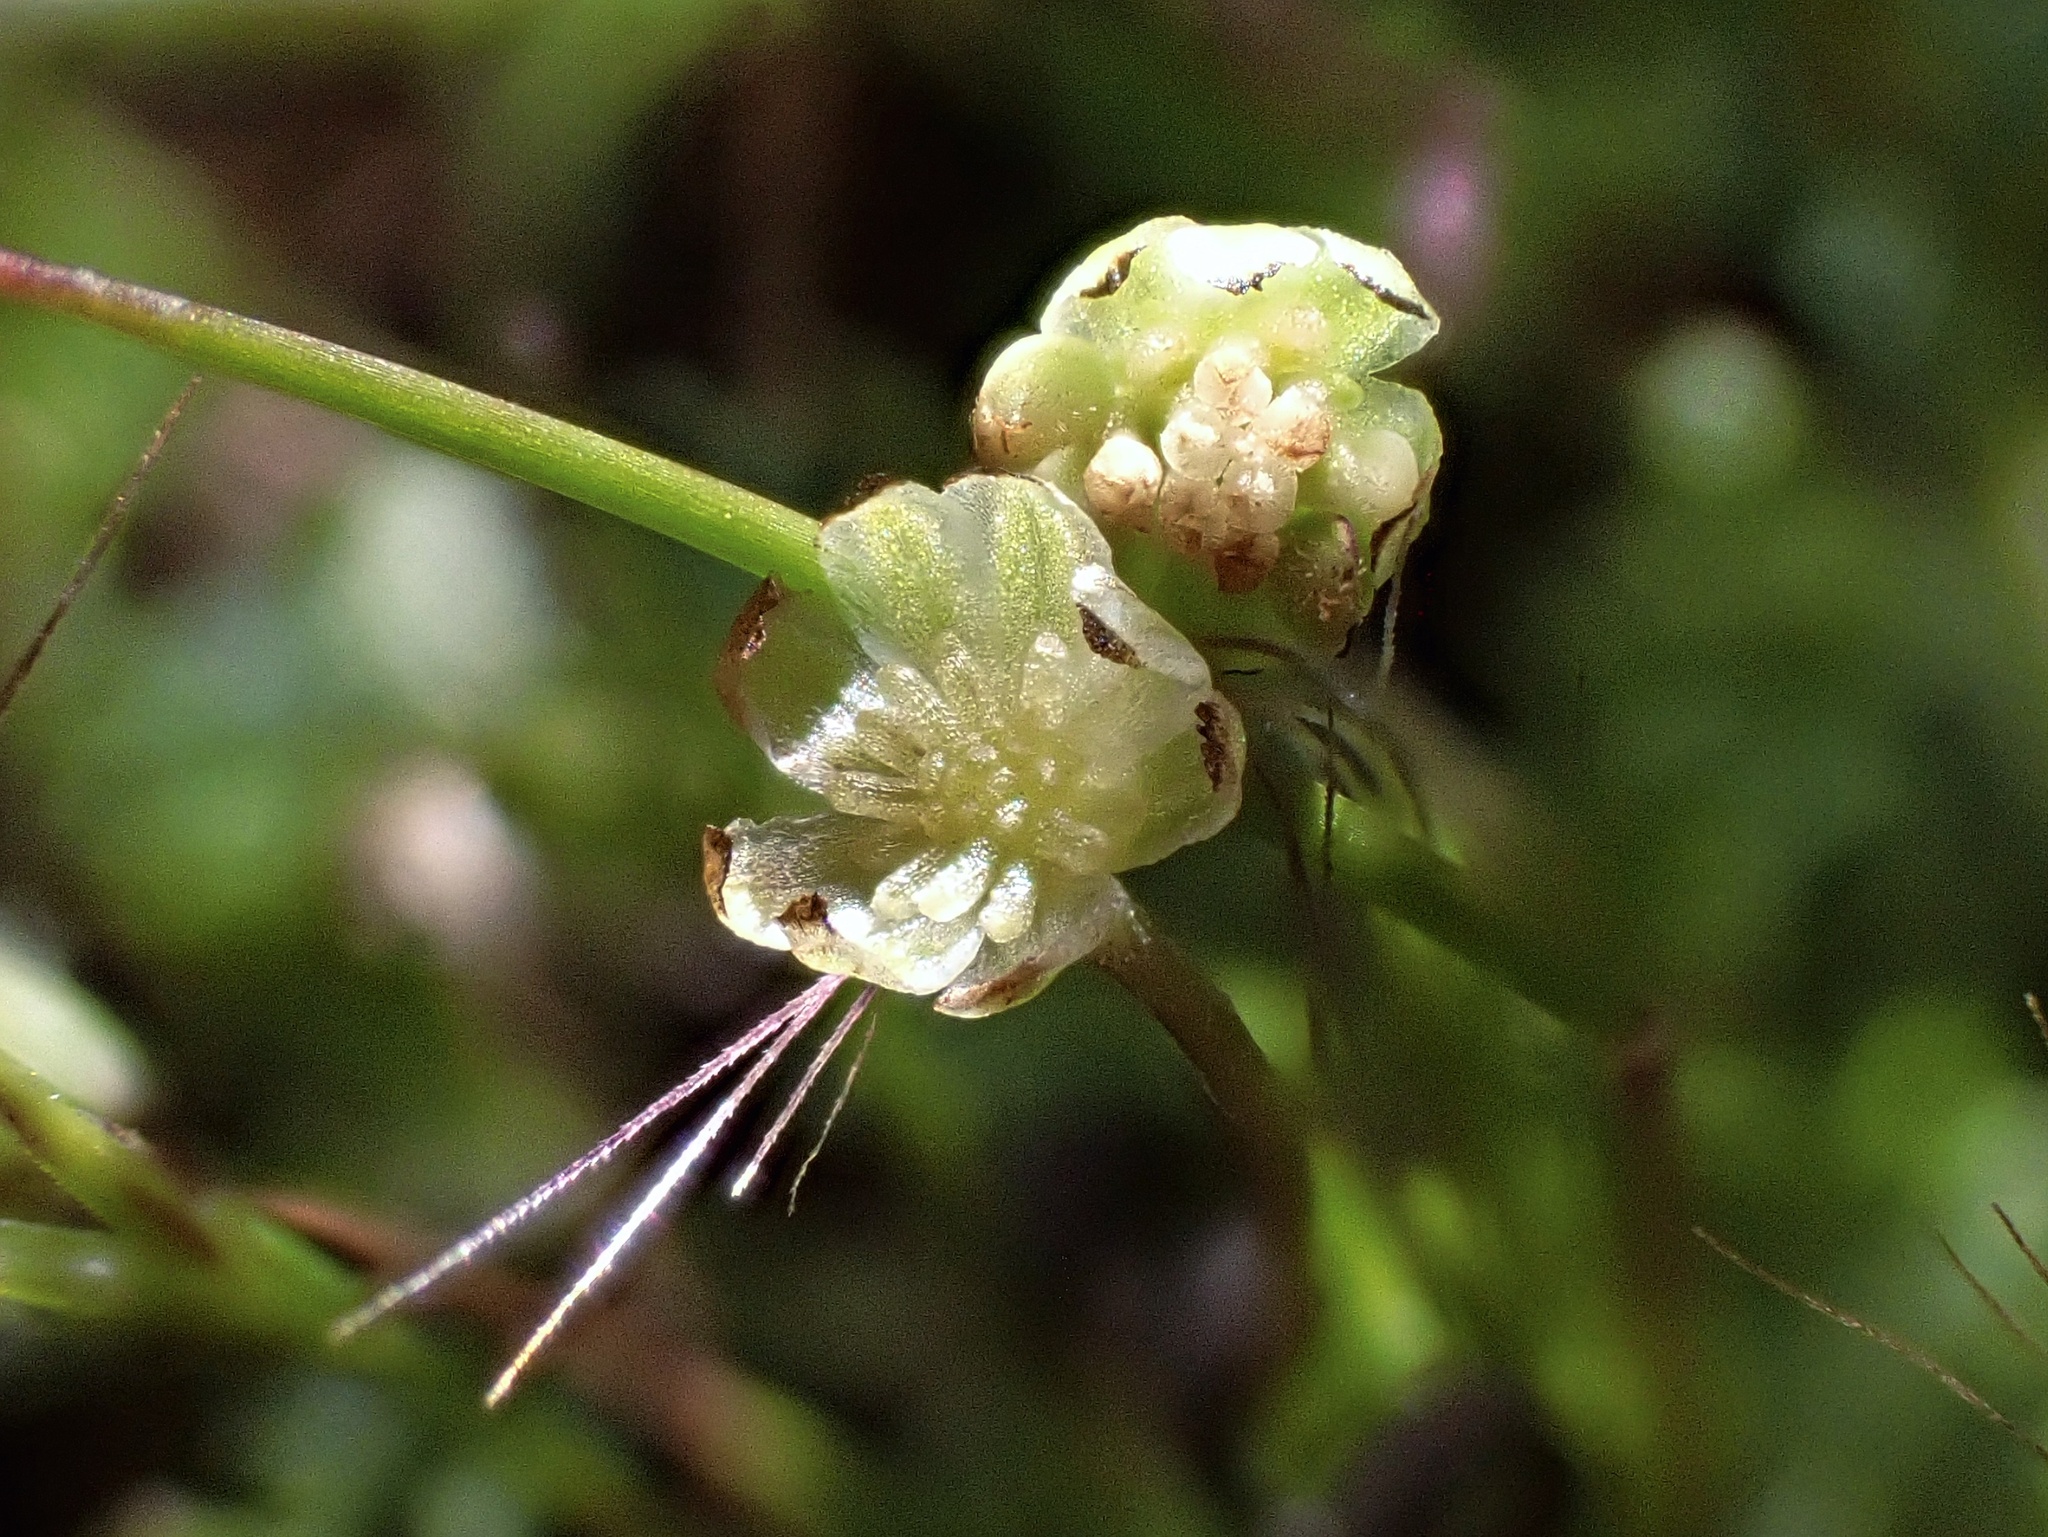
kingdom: Plantae
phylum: Tracheophyta
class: Magnoliopsida
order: Asterales
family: Asteraceae
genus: Cotula
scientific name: Cotula australis
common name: Australian waterbuttons
